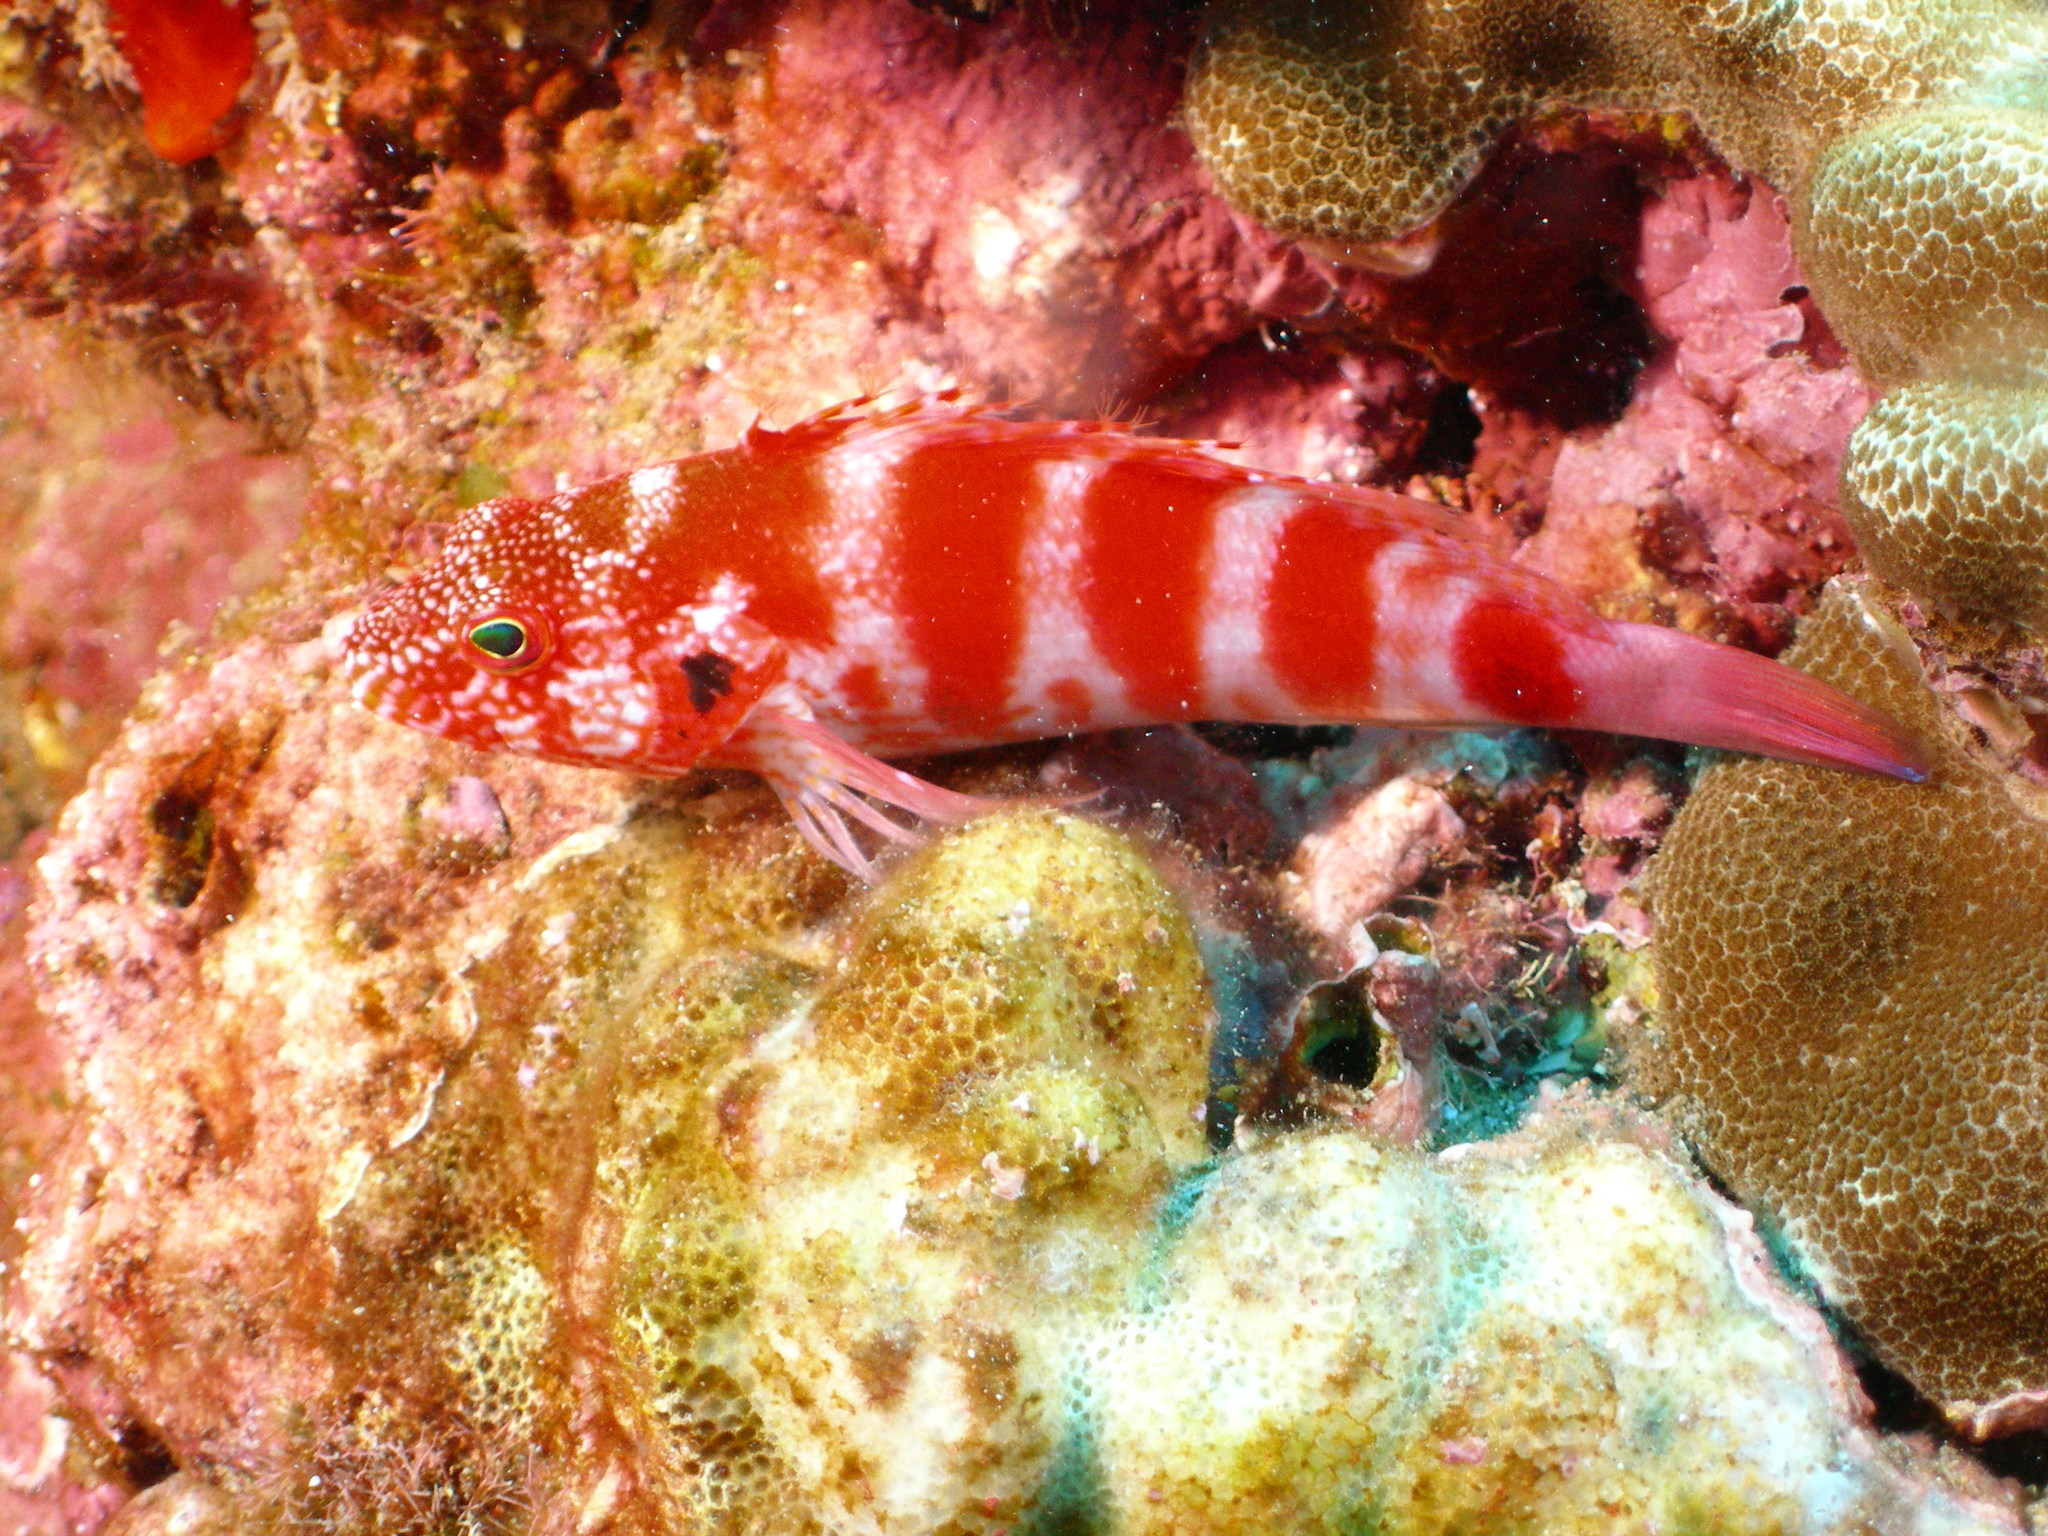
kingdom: Animalia
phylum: Chordata
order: Perciformes
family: Cirrhitidae
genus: Cirrhitops
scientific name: Cirrhitops fasciatus
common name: Redbarred hawkfish
